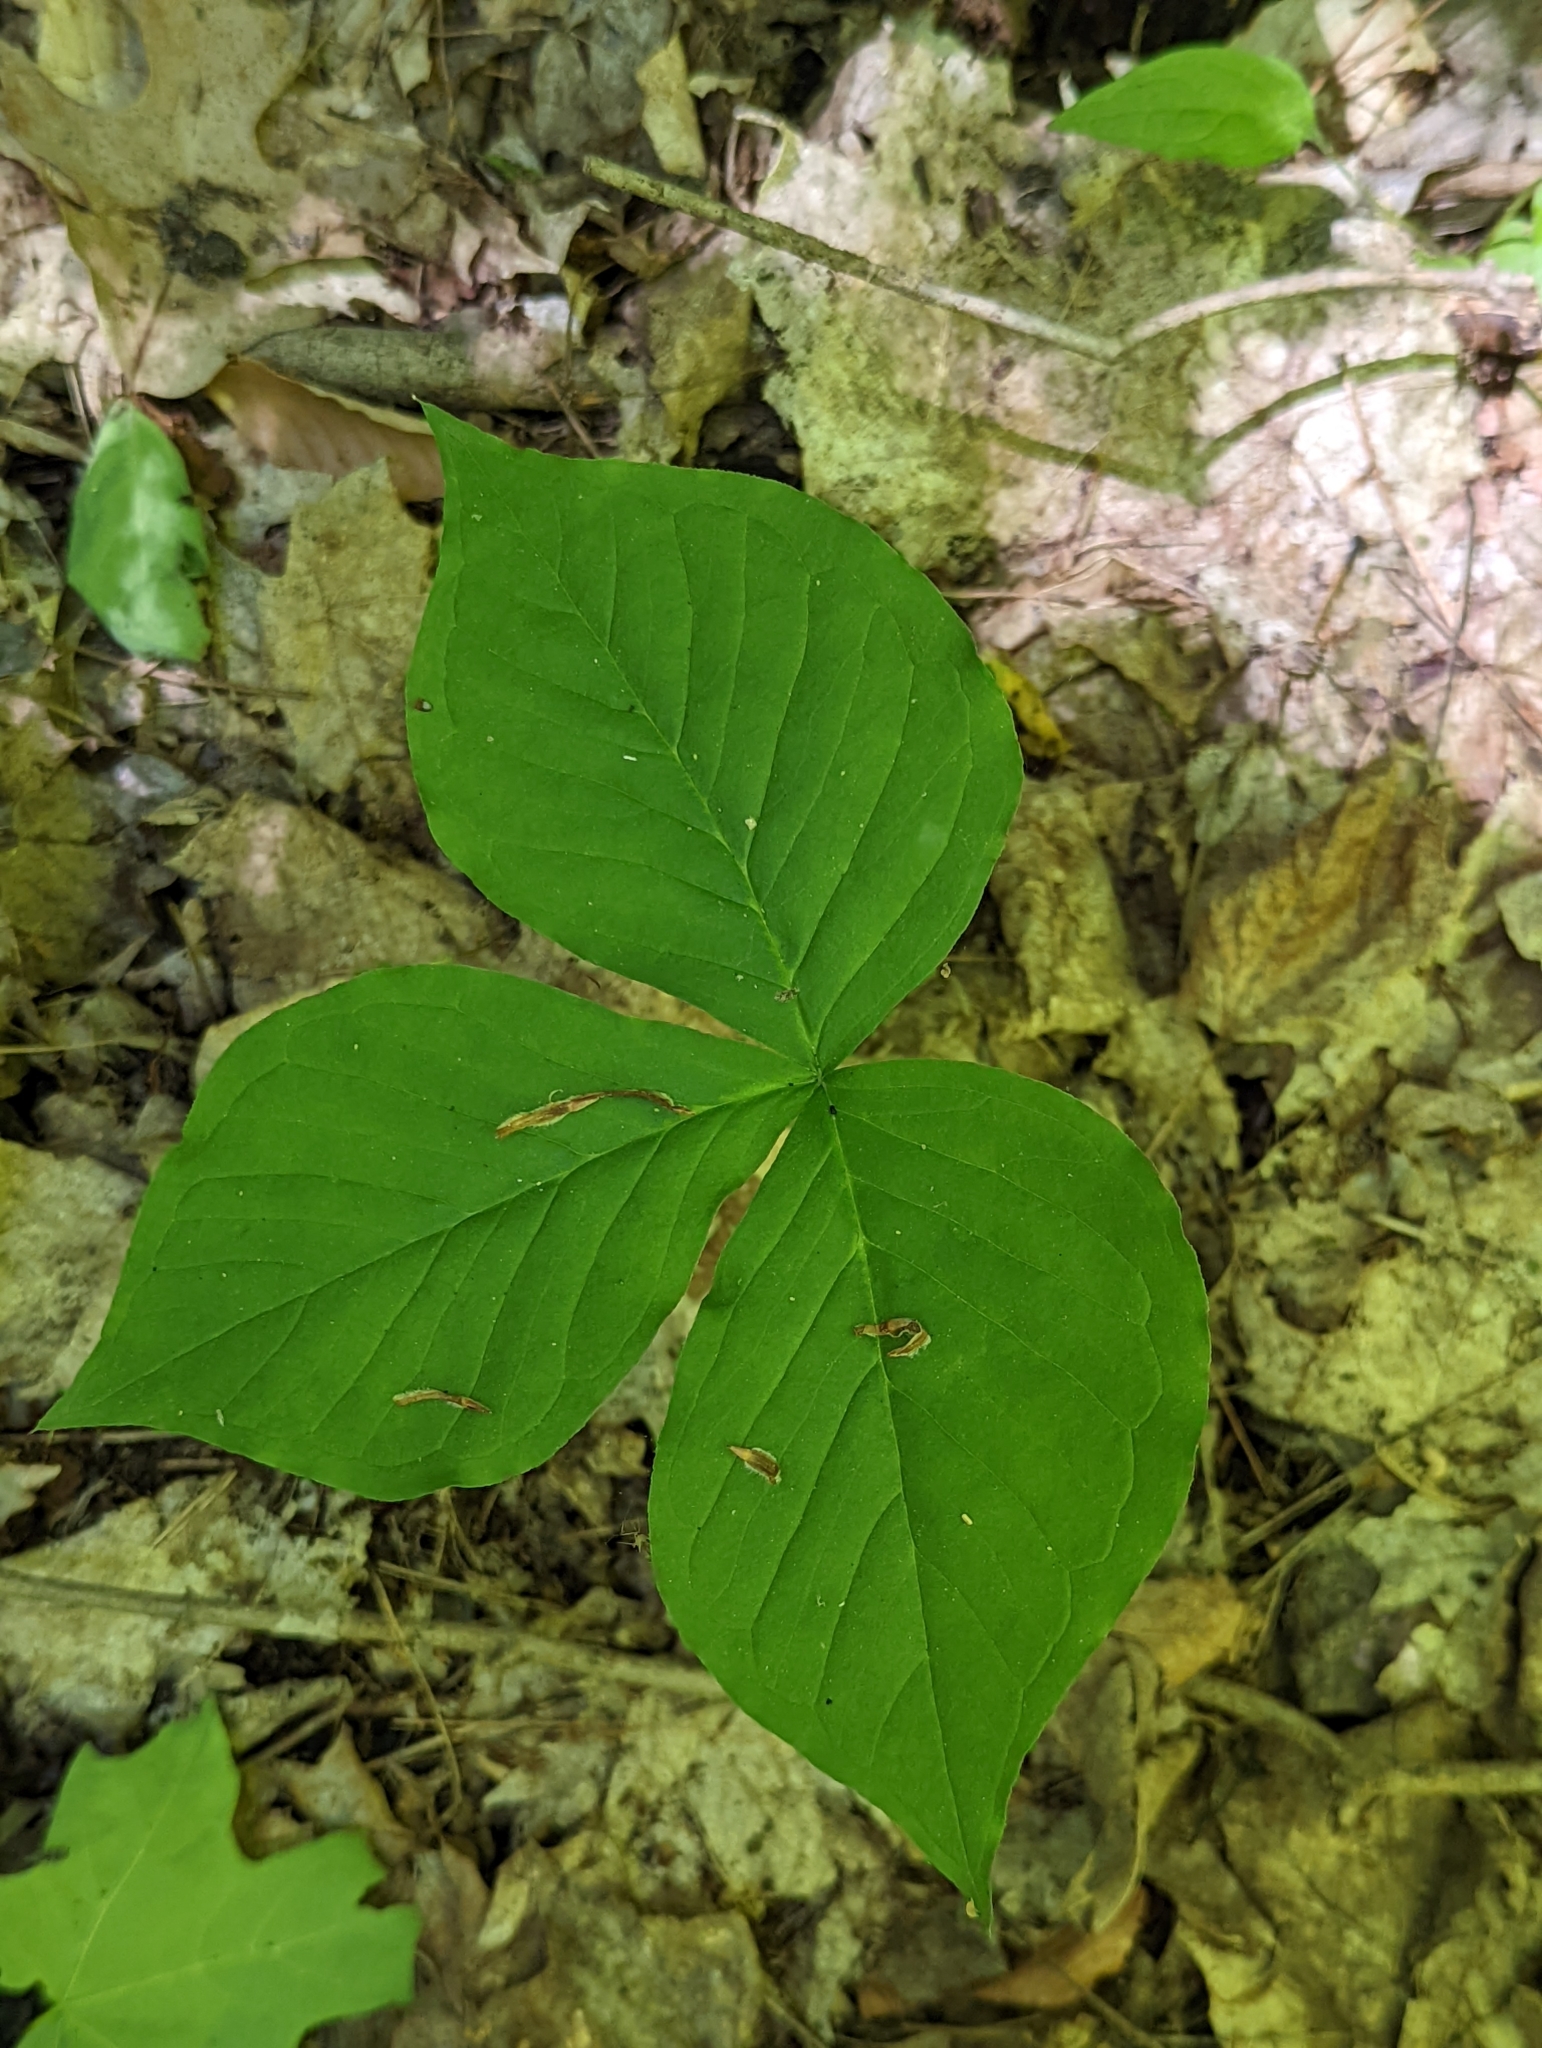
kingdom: Plantae
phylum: Tracheophyta
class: Liliopsida
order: Alismatales
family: Araceae
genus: Arisaema
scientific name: Arisaema triphyllum
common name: Jack-in-the-pulpit
